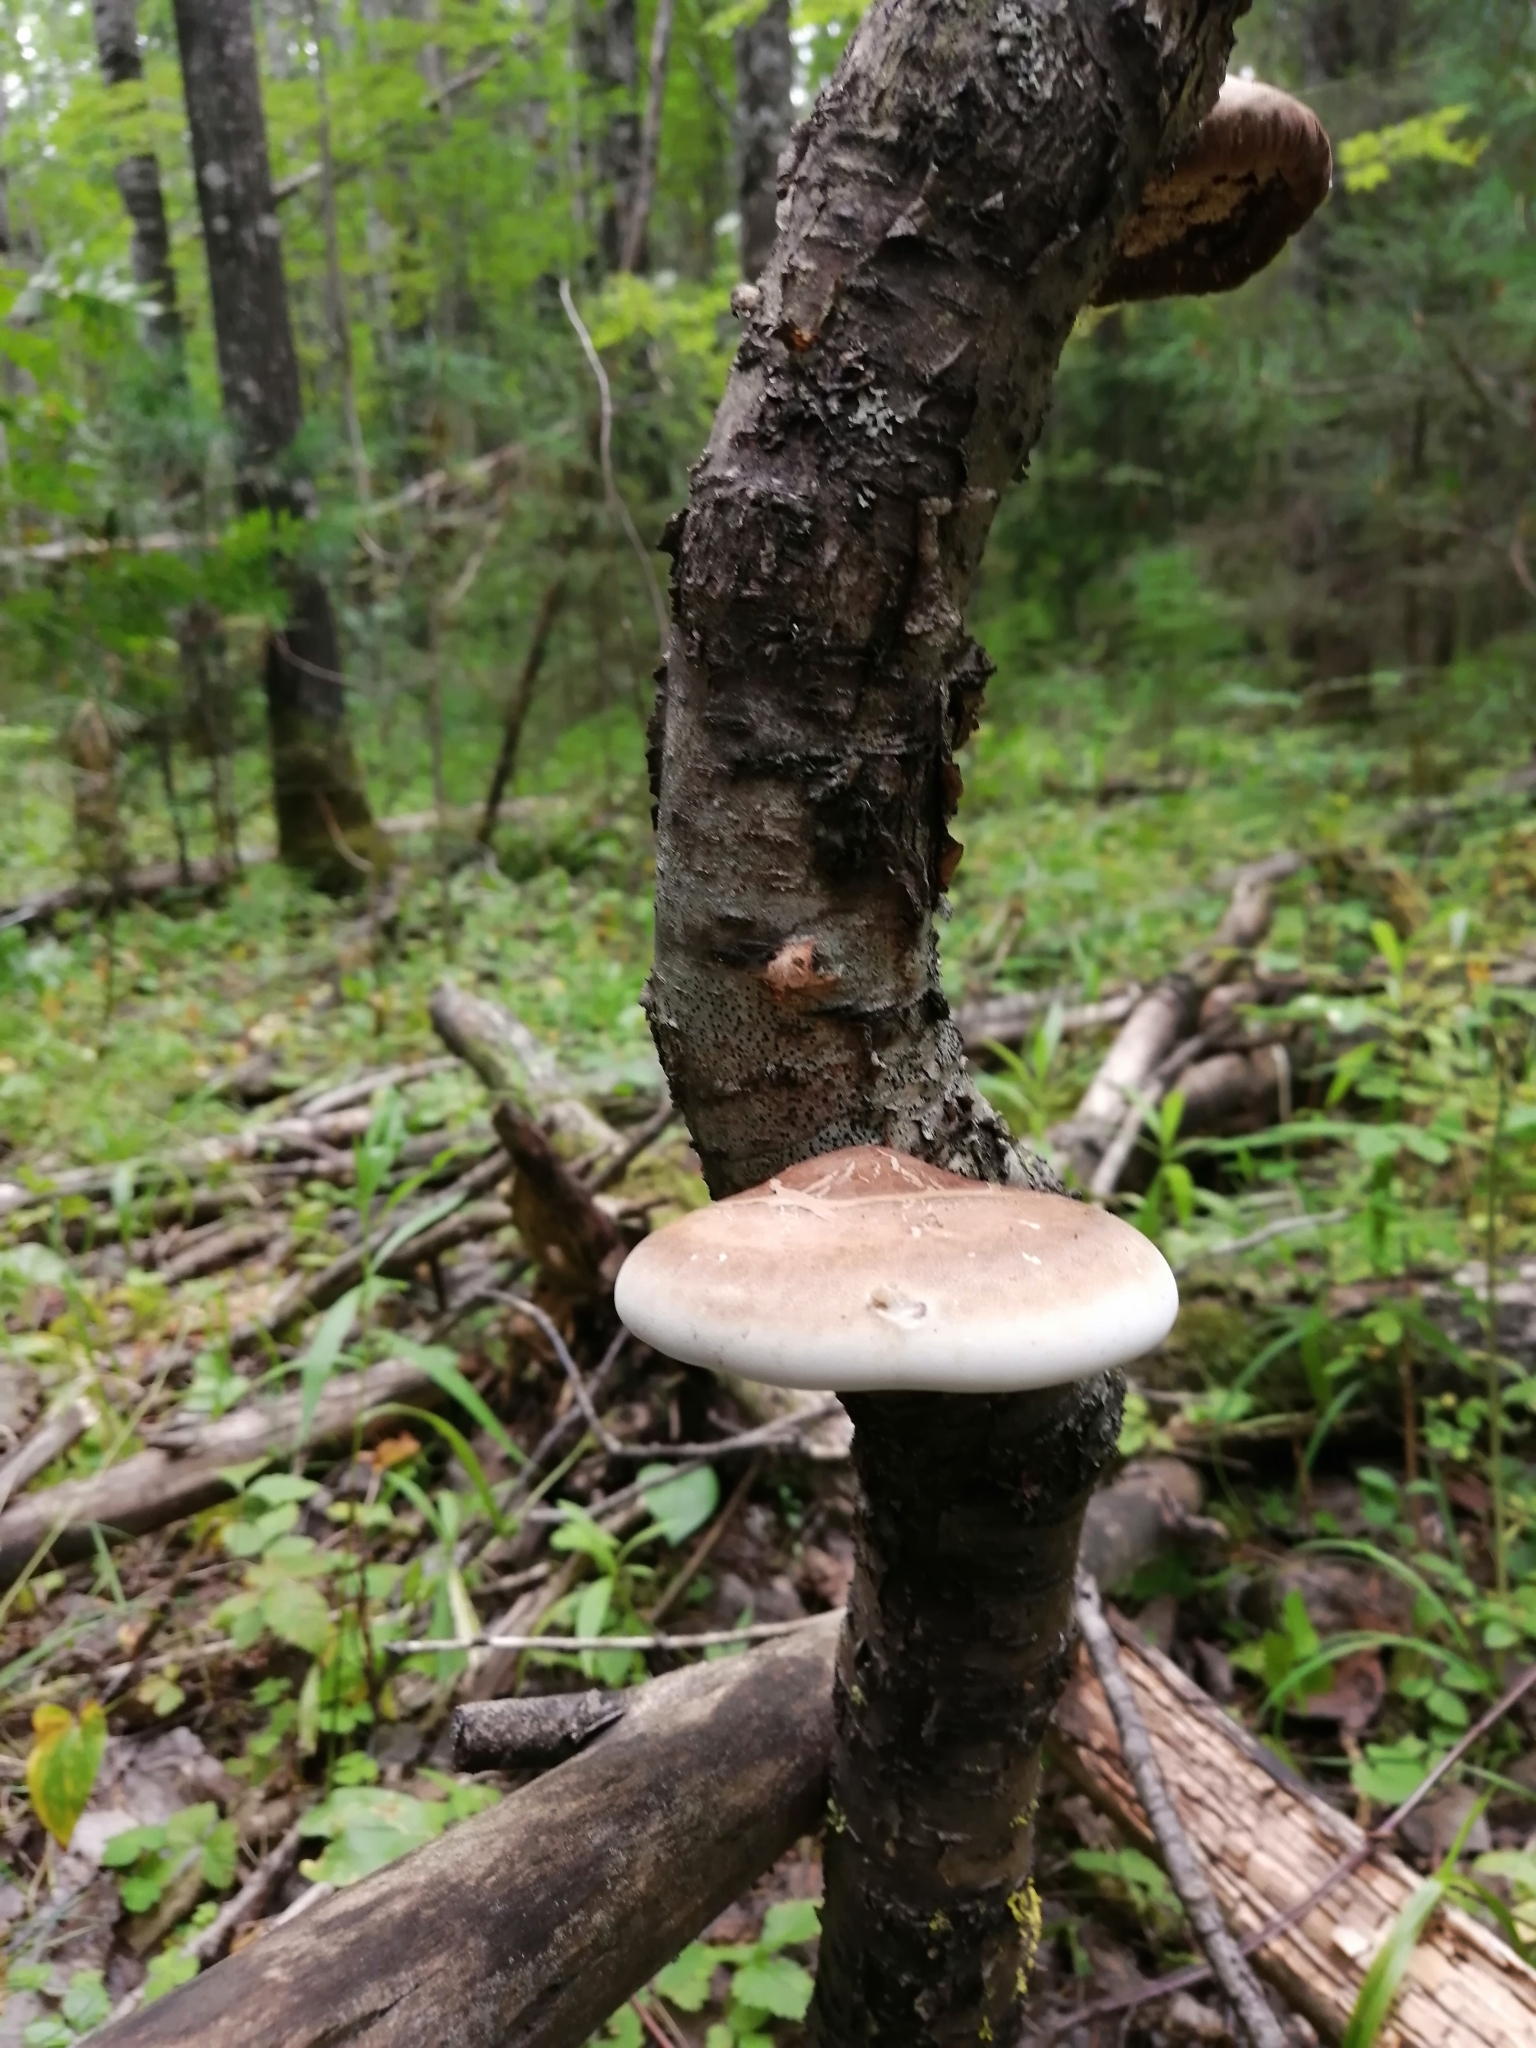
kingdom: Fungi
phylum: Basidiomycota
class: Agaricomycetes
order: Polyporales
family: Fomitopsidaceae
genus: Fomitopsis
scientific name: Fomitopsis betulina
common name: Birch polypore
